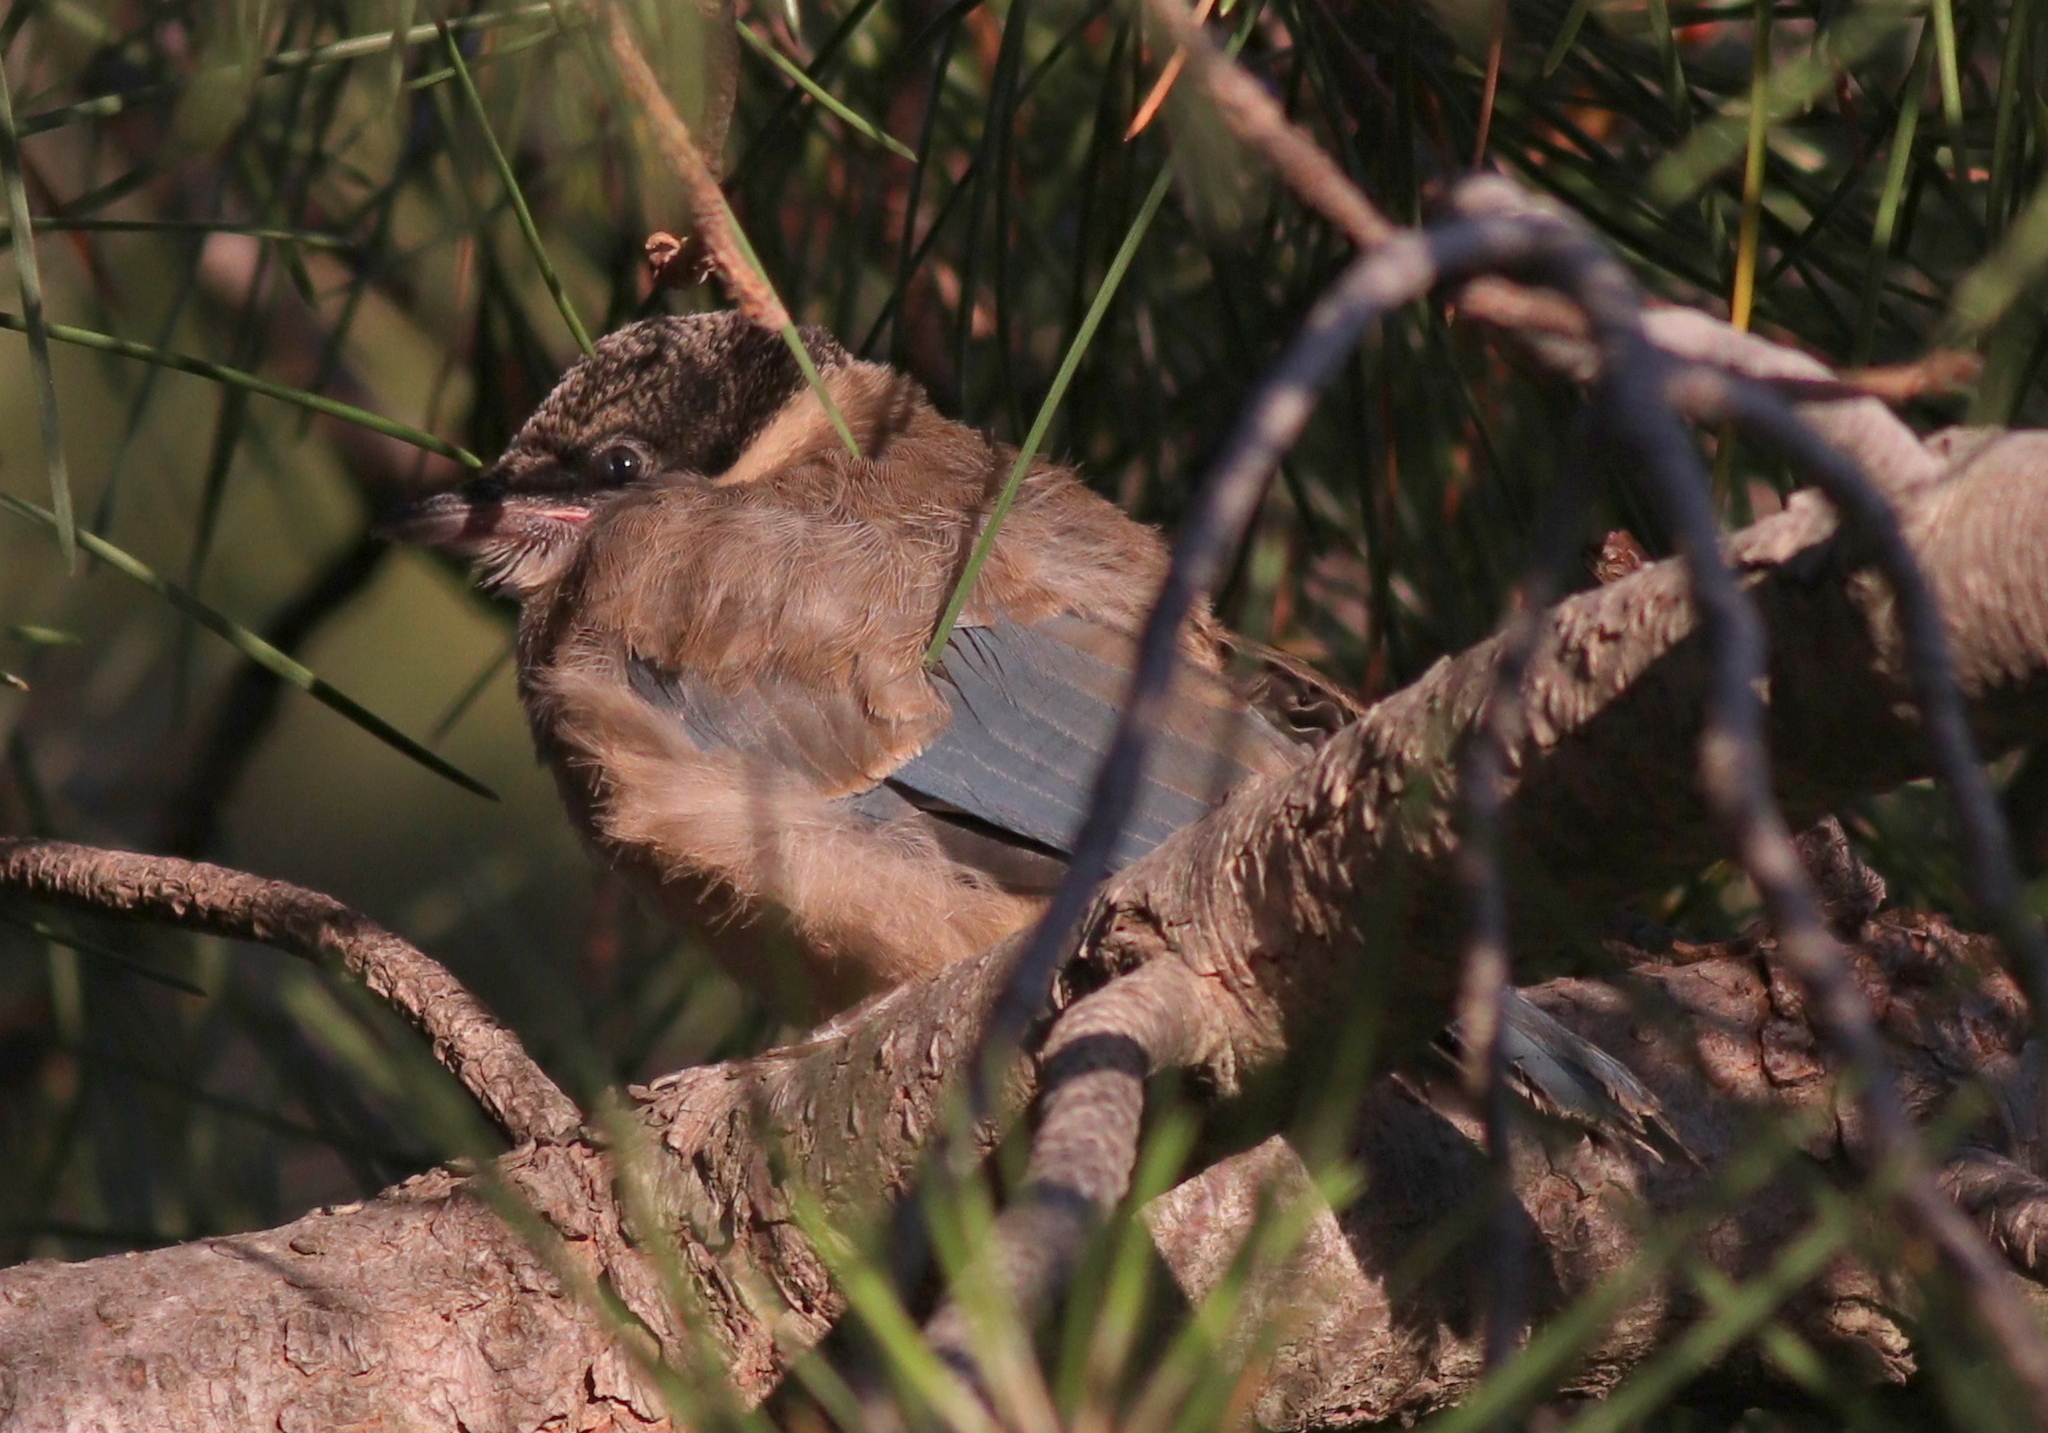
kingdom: Animalia
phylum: Chordata
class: Aves
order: Passeriformes
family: Corvidae
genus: Cyanopica
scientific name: Cyanopica cooki
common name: Iberian magpie
